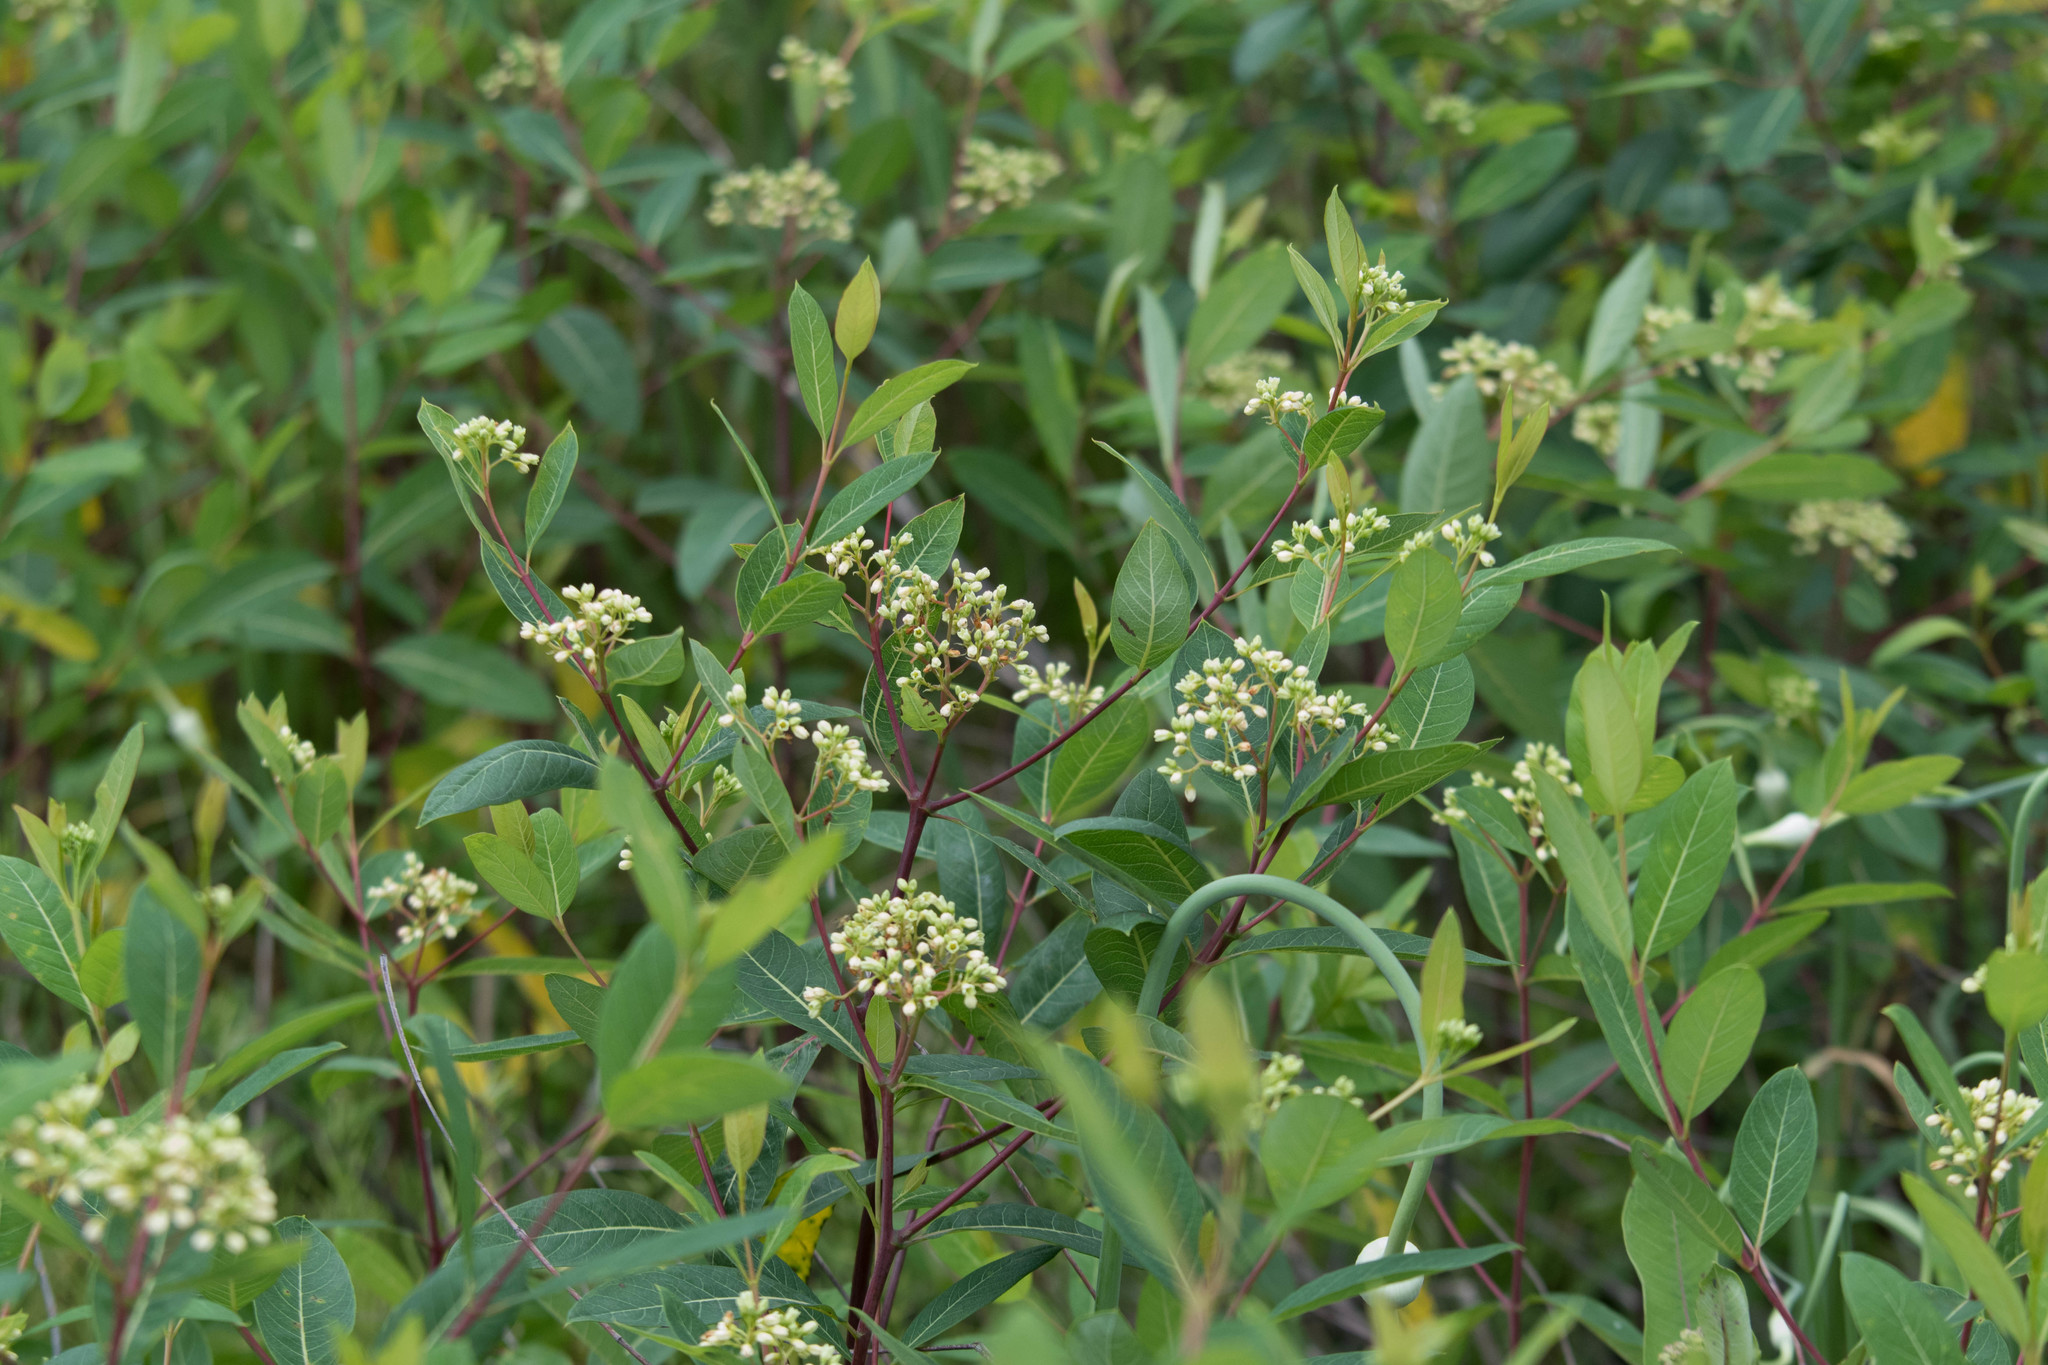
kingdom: Plantae
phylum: Tracheophyta
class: Magnoliopsida
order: Gentianales
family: Apocynaceae
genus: Apocynum
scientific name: Apocynum cannabinum
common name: Hemp dogbane
